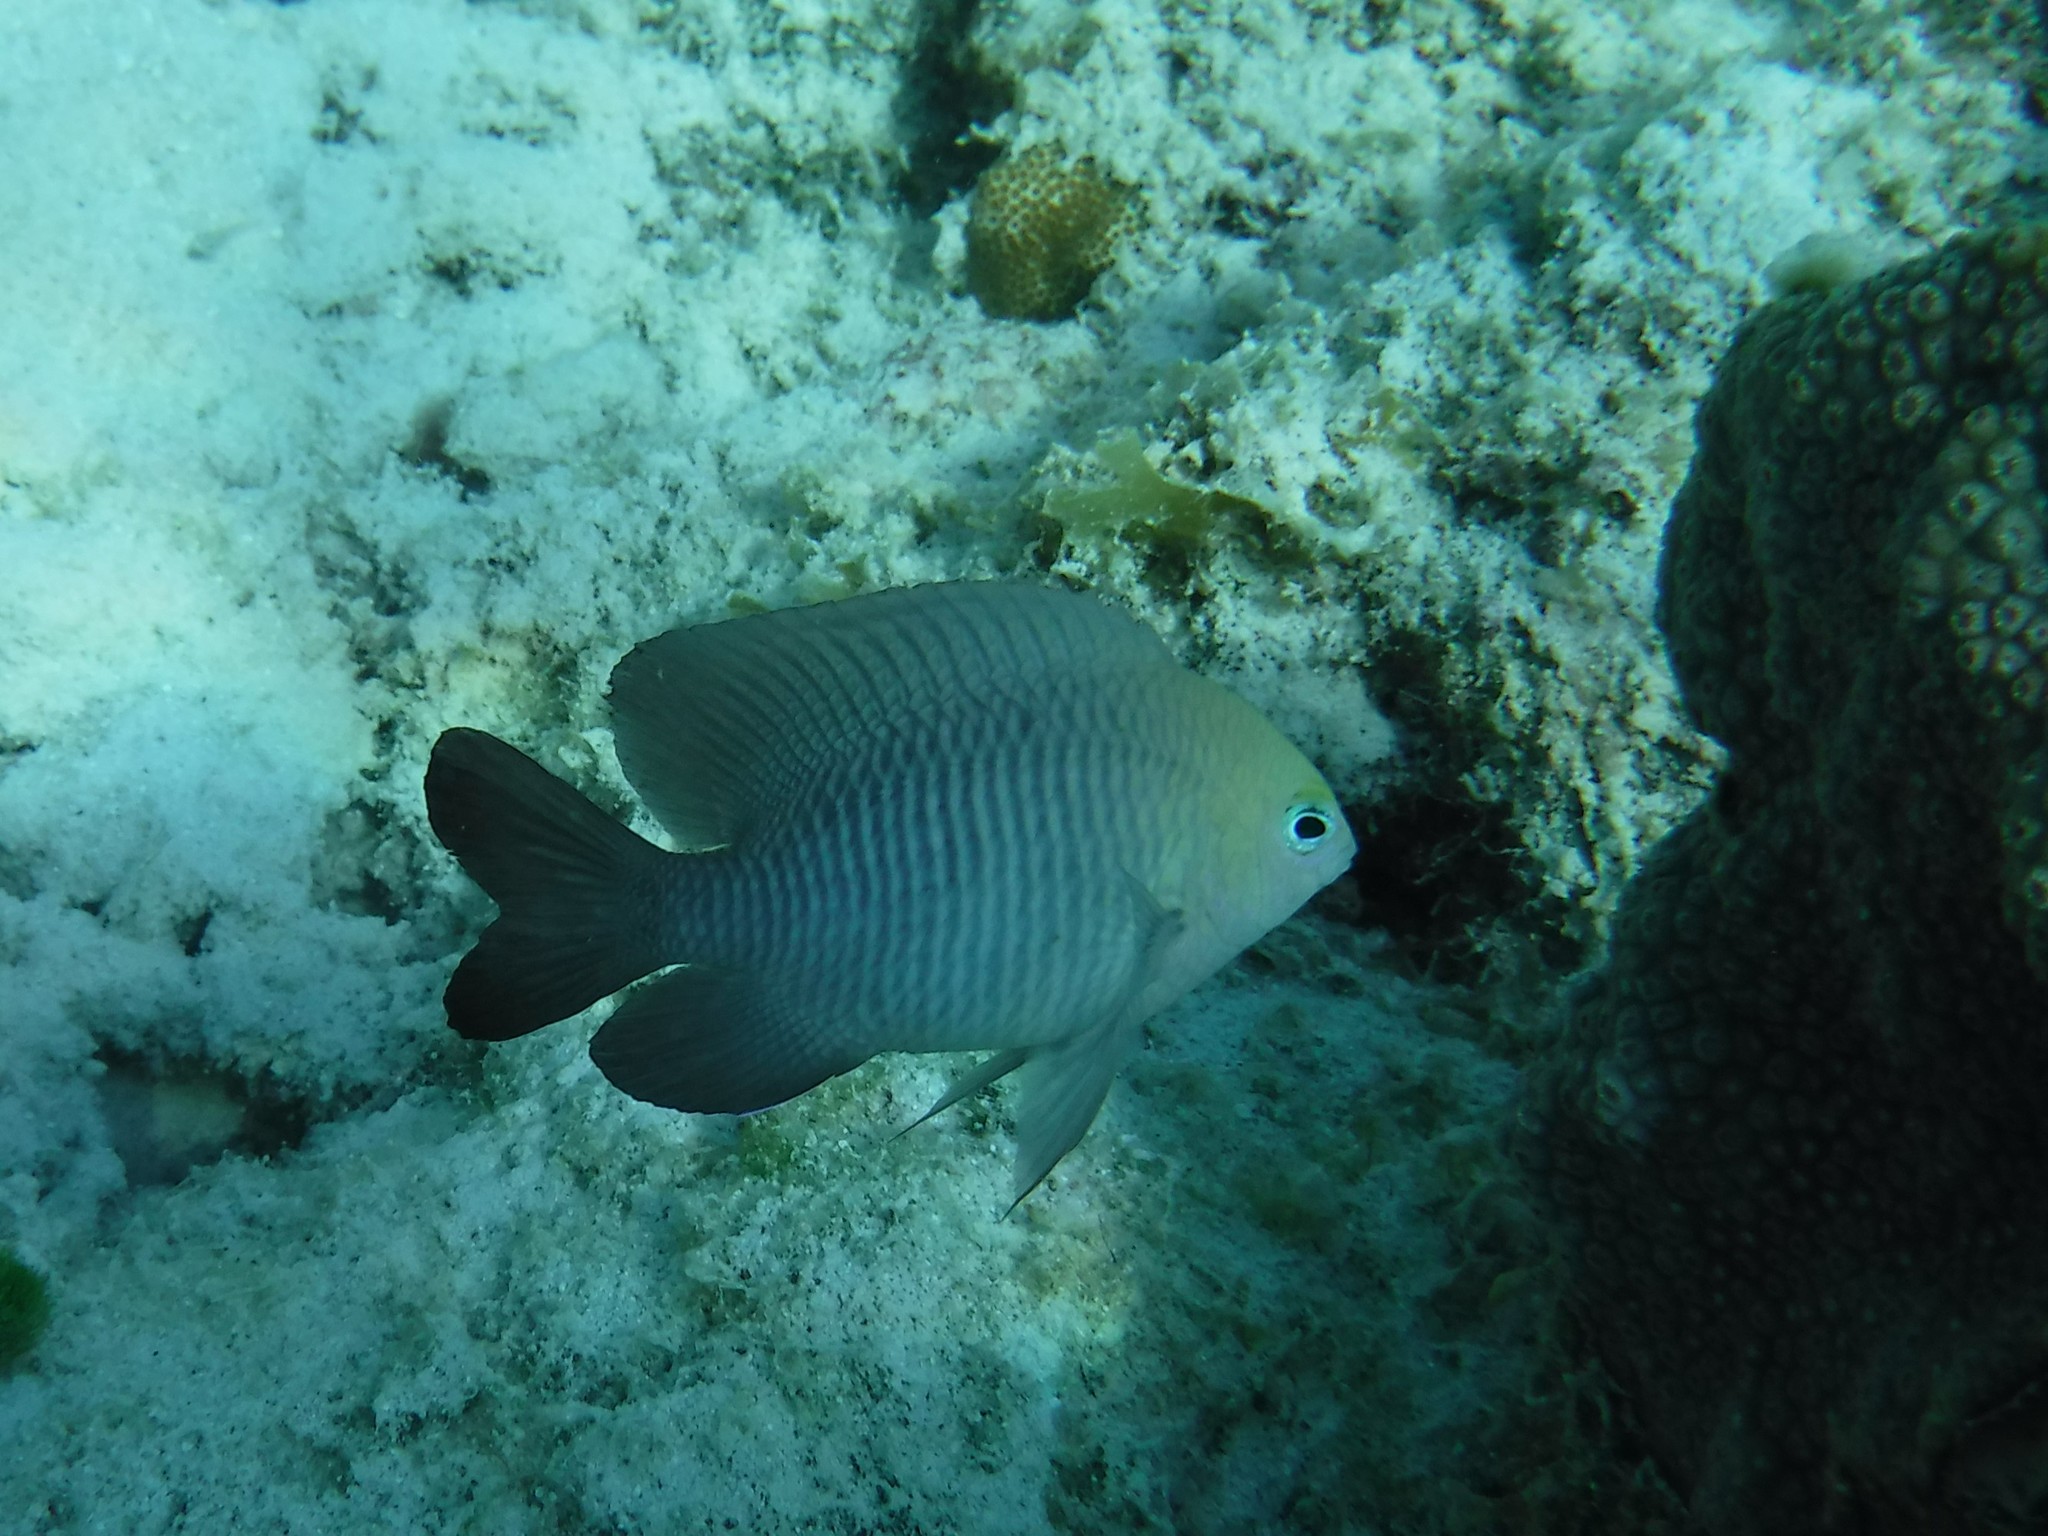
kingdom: Animalia
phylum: Chordata
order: Perciformes
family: Pomacentridae
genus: Stegastes
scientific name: Stegastes diencaeus
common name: Longfin damselfish
